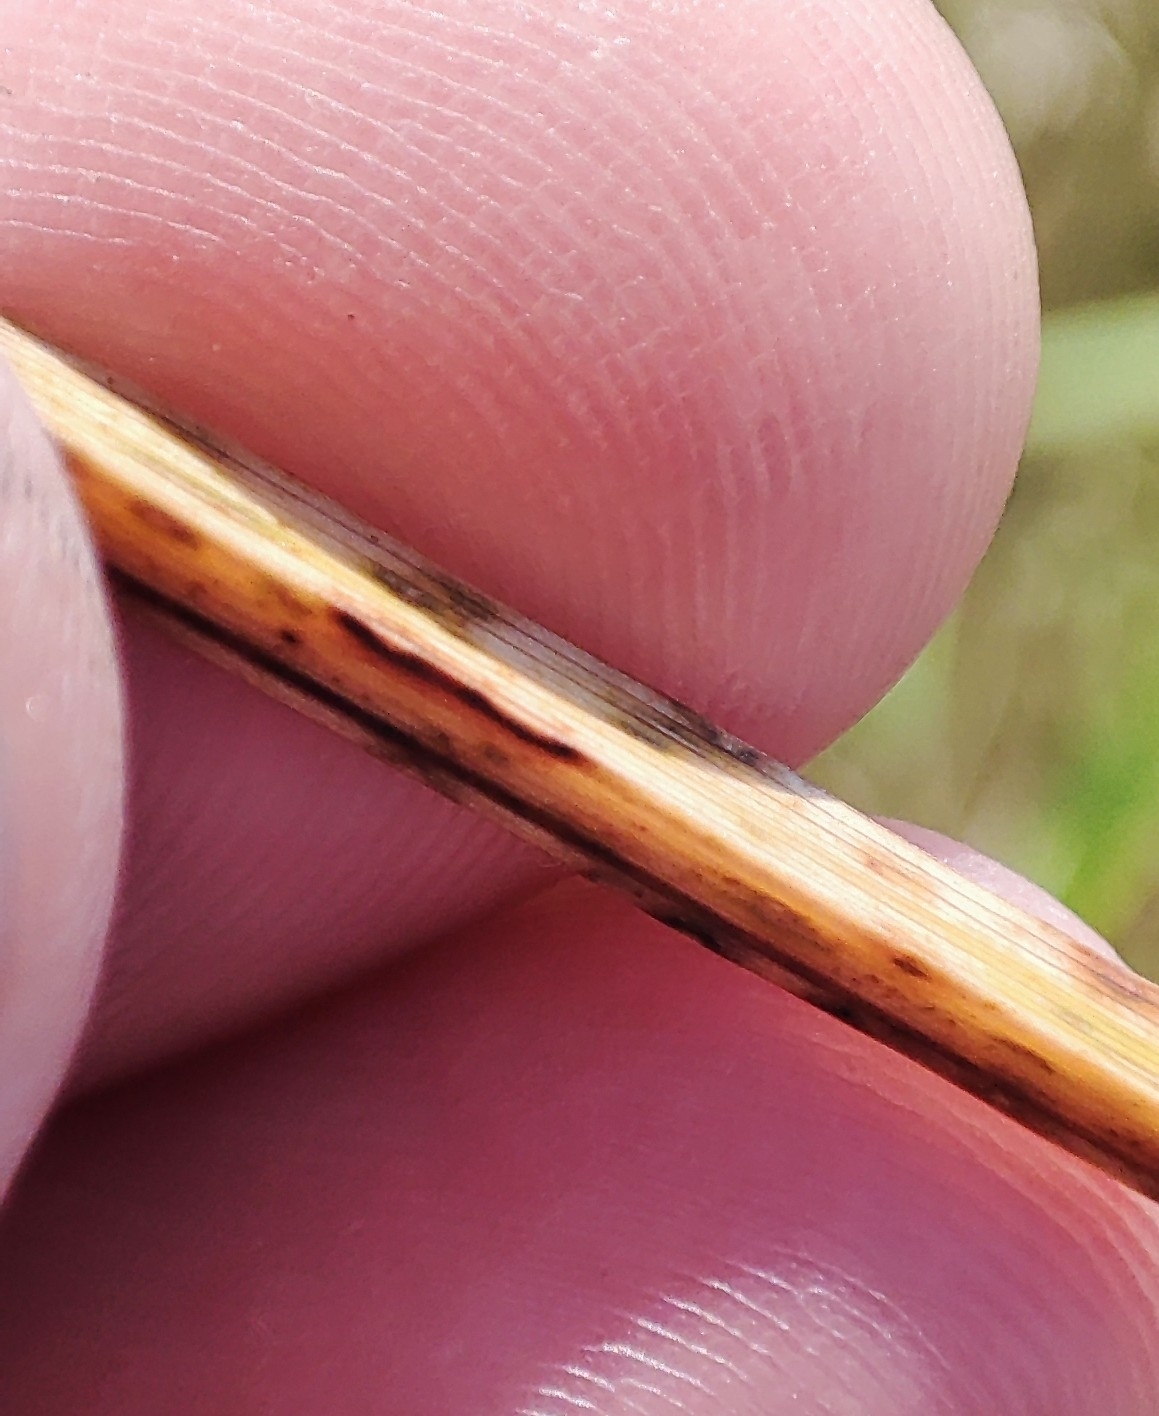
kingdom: Plantae
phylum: Tracheophyta
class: Liliopsida
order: Poales
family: Cyperaceae
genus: Bolboschoenus
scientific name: Bolboschoenus maritimus
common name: Sea club-rush
